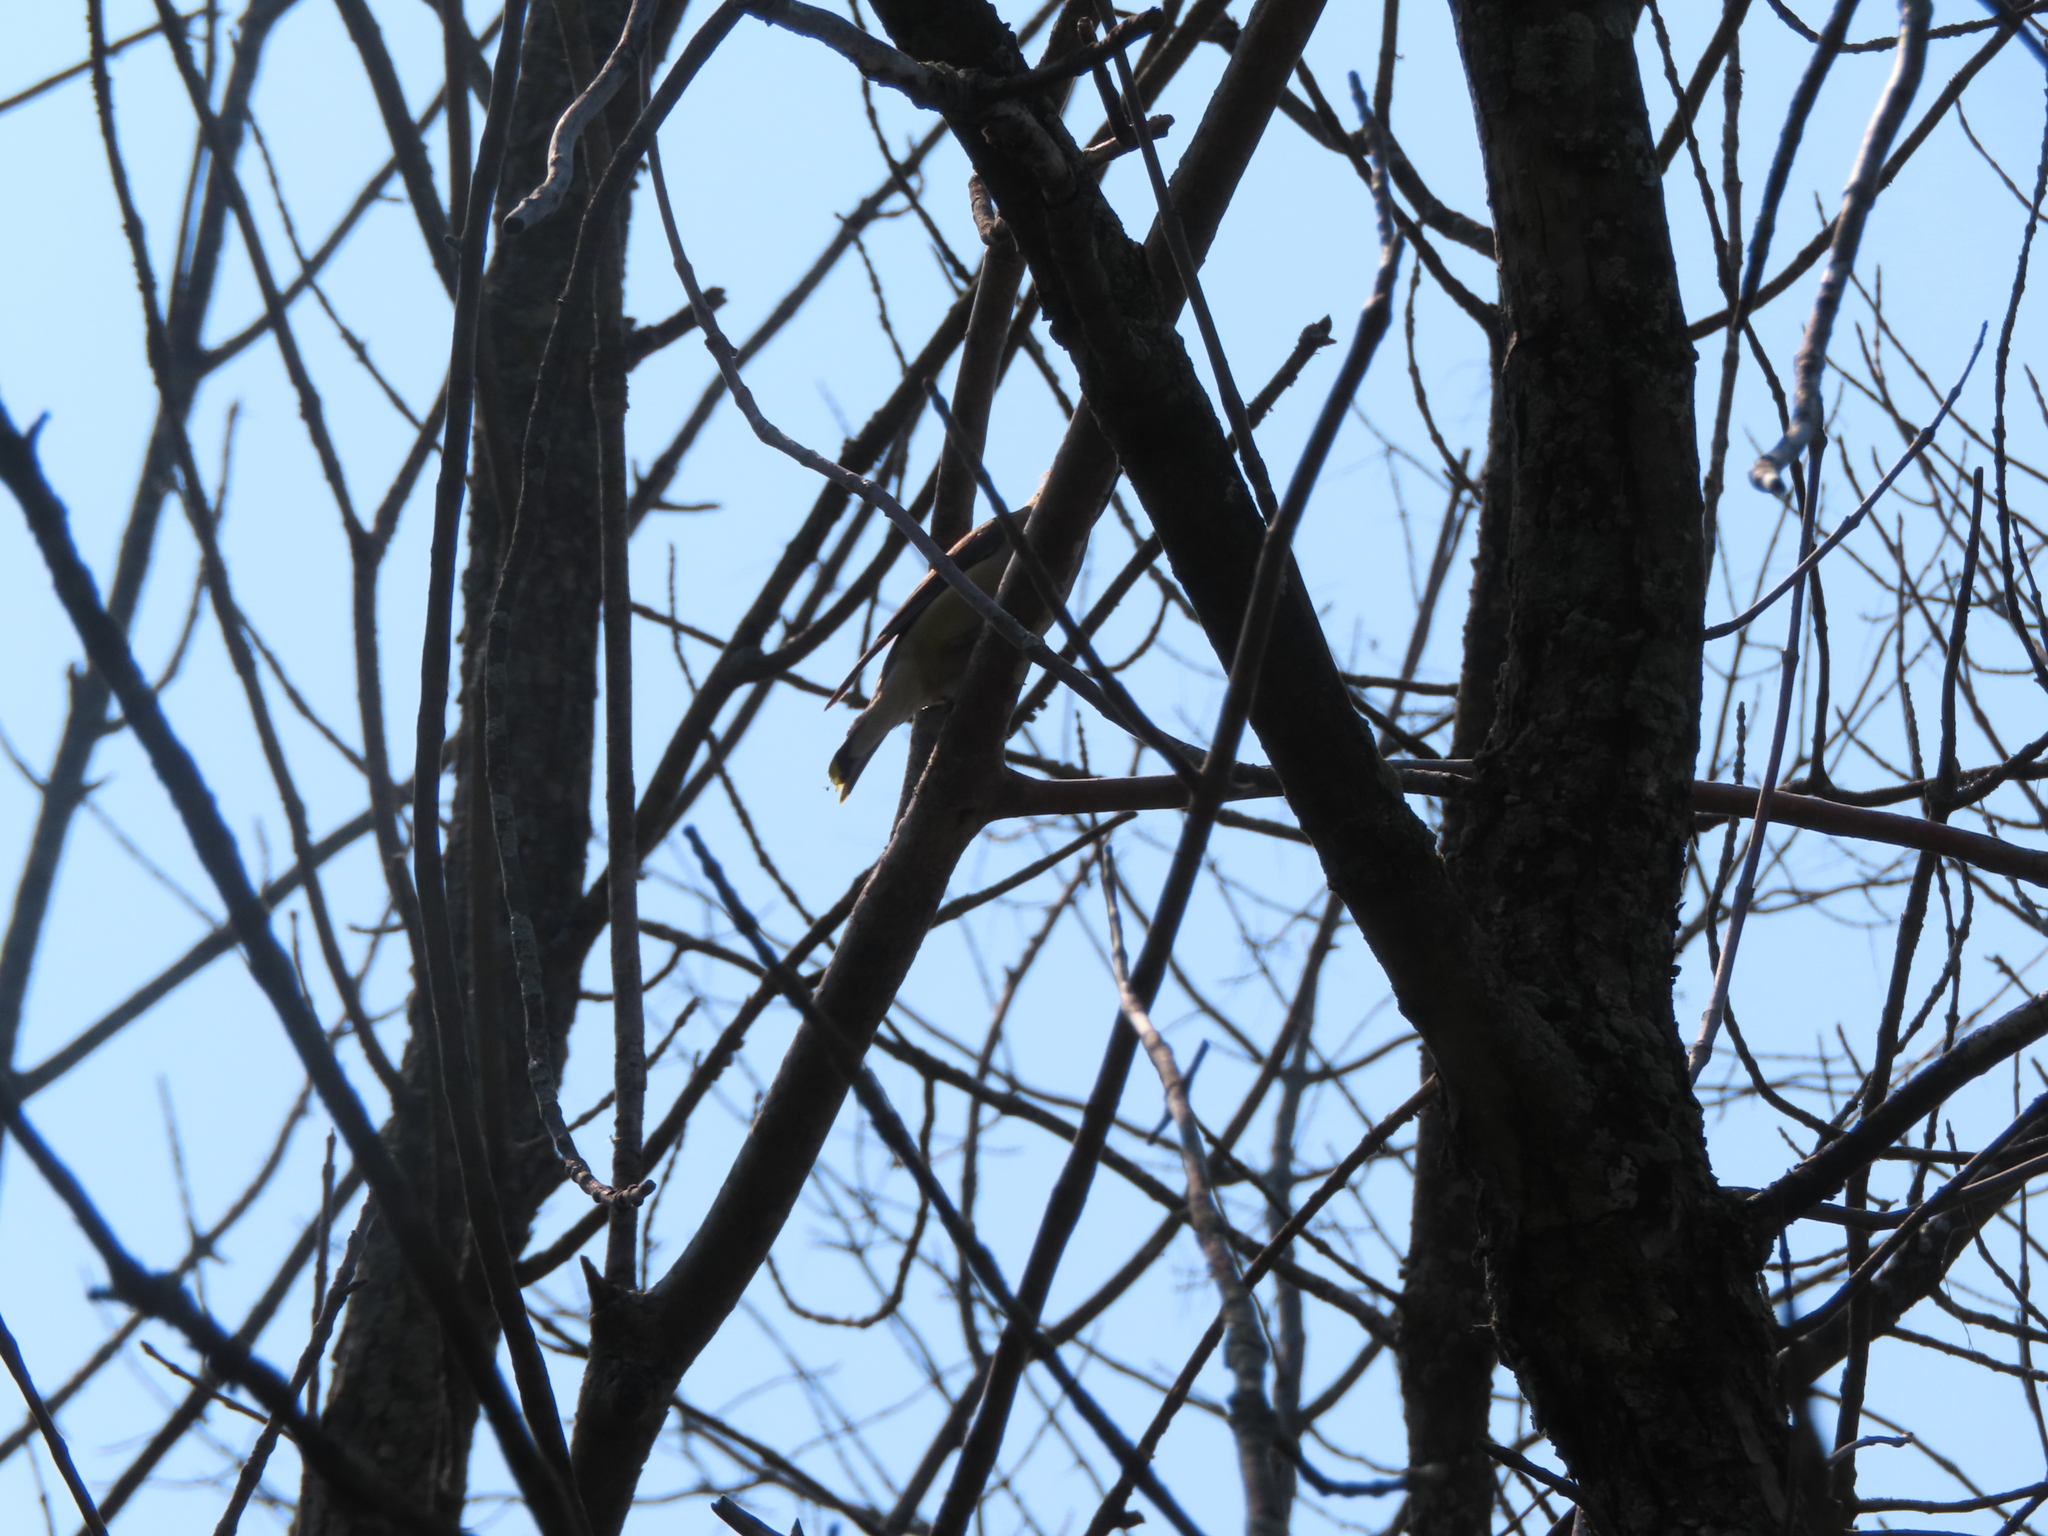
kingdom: Animalia
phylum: Chordata
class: Aves
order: Passeriformes
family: Bombycillidae
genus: Bombycilla
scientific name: Bombycilla cedrorum
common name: Cedar waxwing
